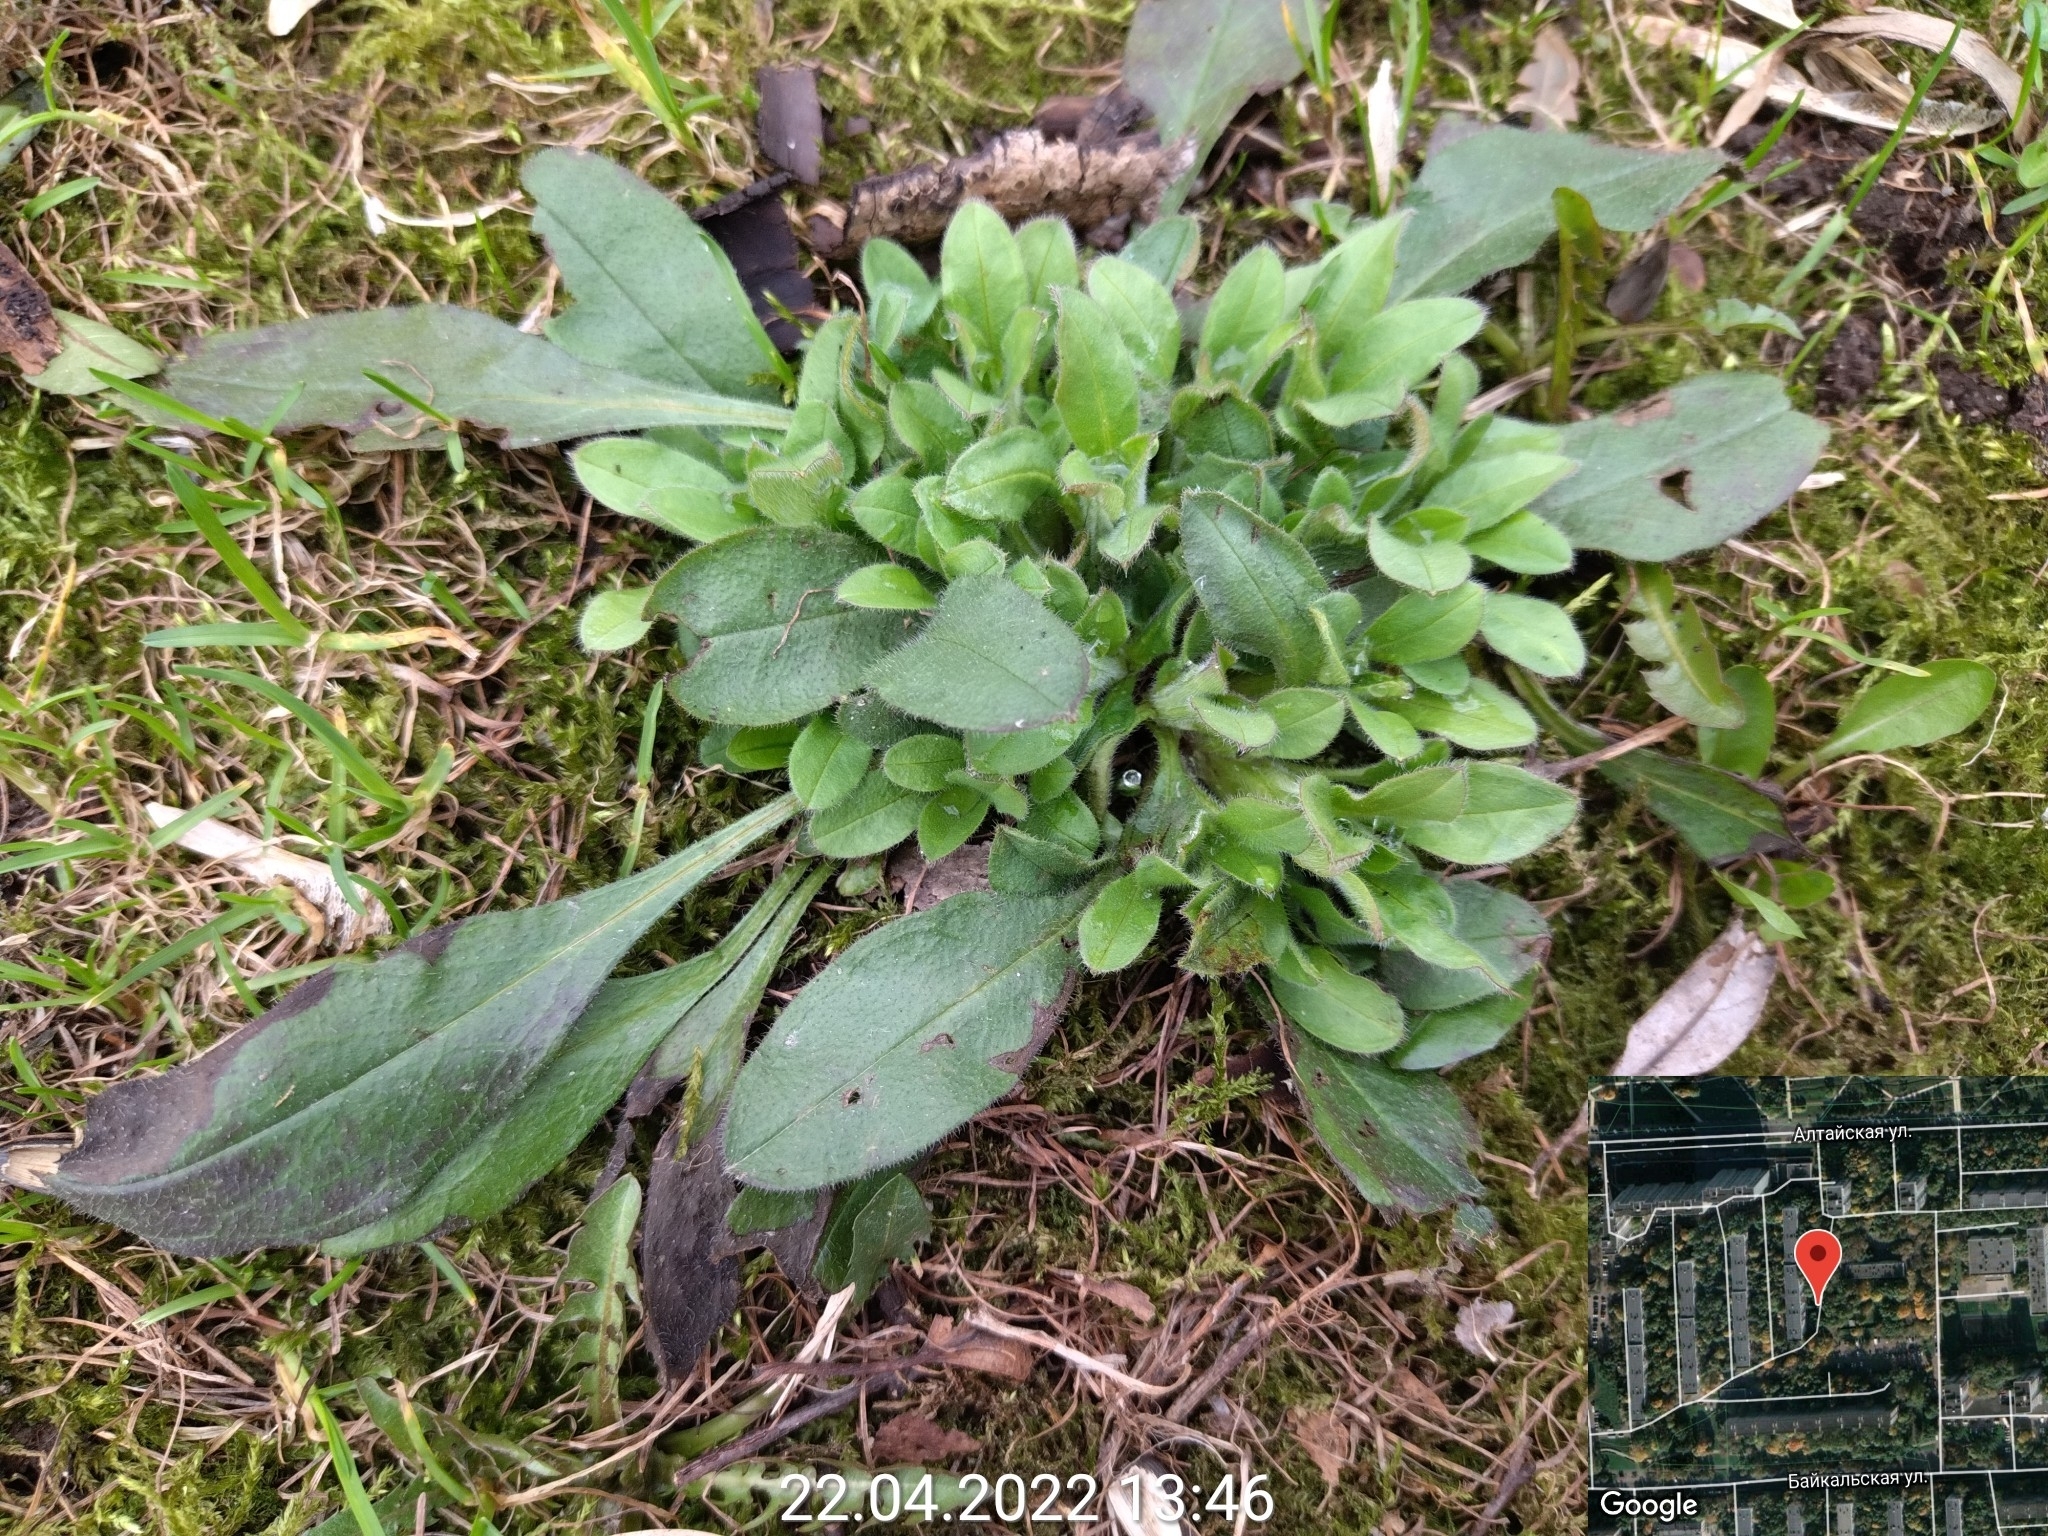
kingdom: Plantae
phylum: Tracheophyta
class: Magnoliopsida
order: Boraginales
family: Boraginaceae
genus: Myosotis
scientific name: Myosotis sparsiflora
